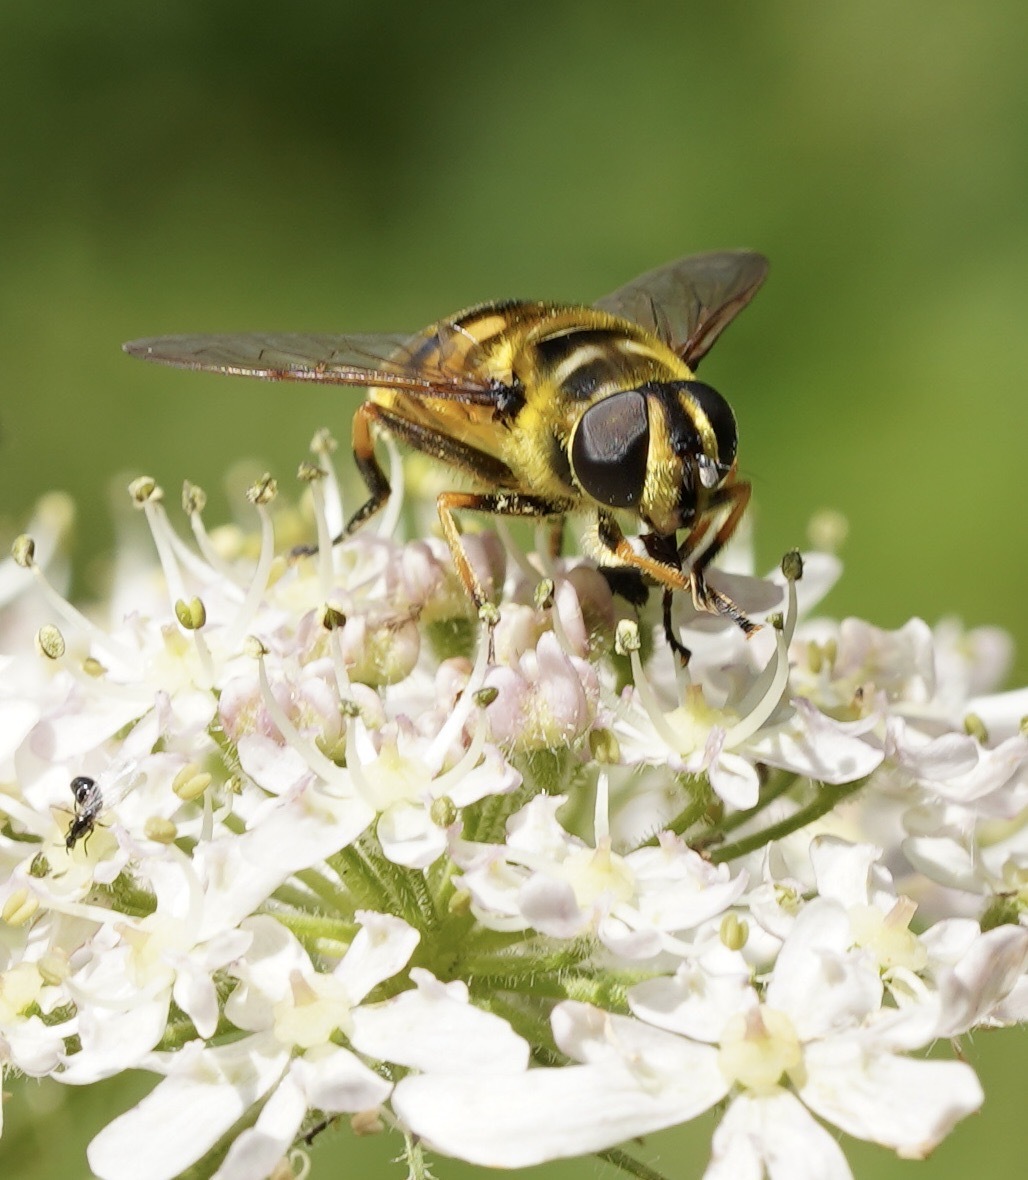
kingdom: Animalia
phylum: Arthropoda
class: Insecta
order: Diptera
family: Syrphidae
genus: Myathropa
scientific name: Myathropa florea
